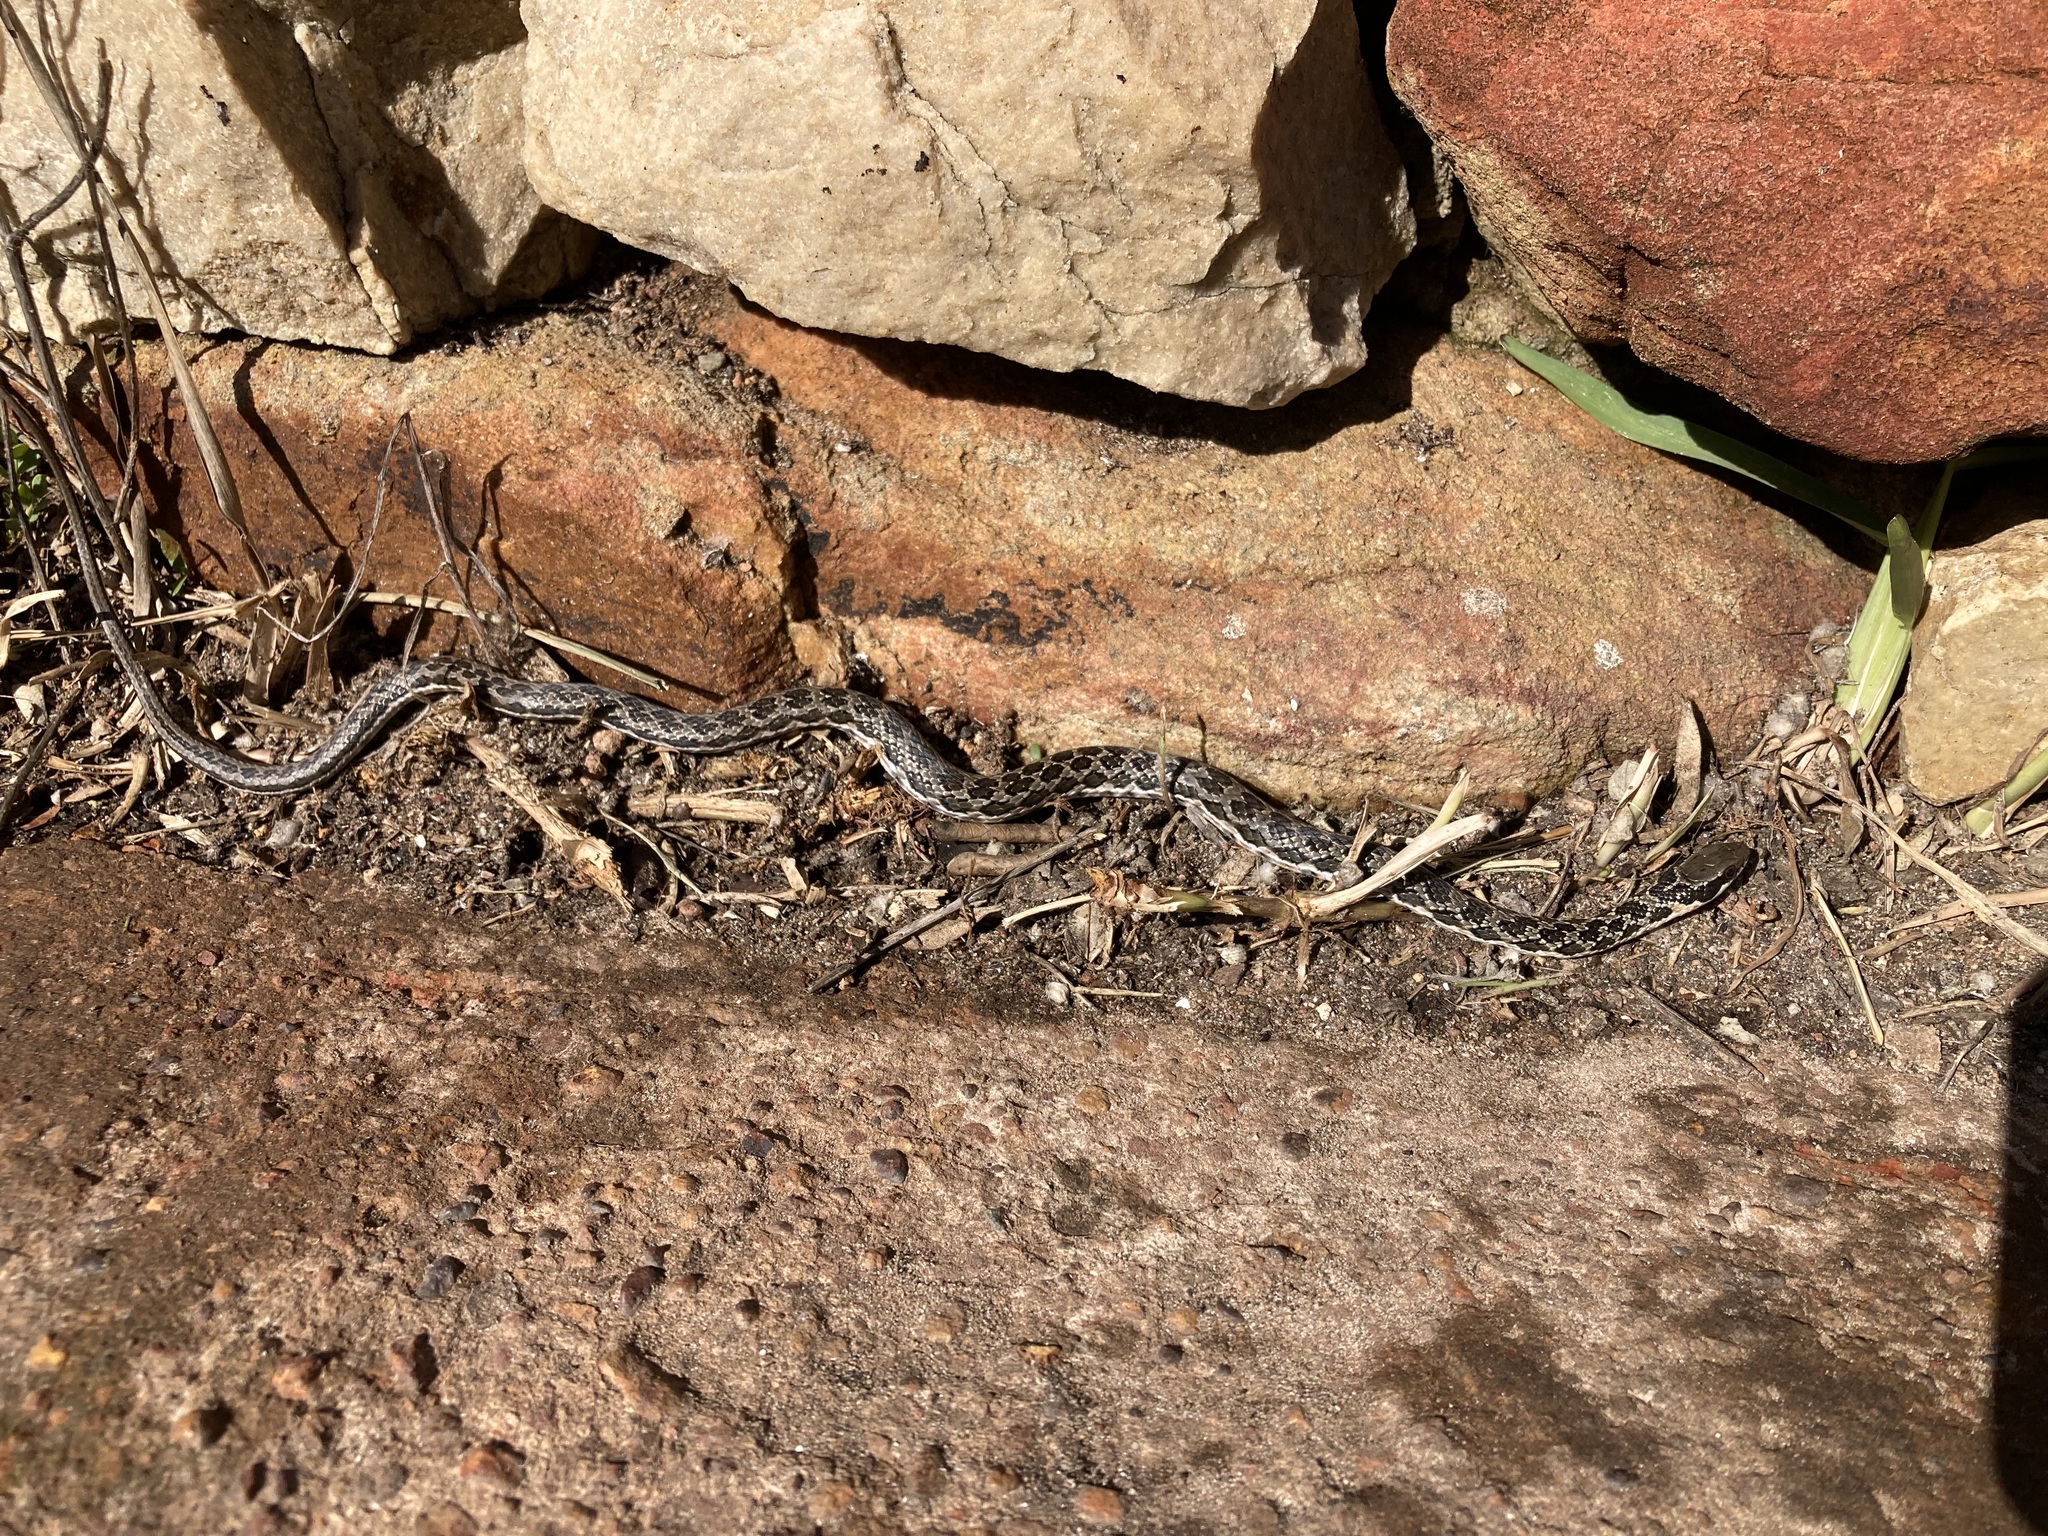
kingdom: Animalia
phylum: Chordata
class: Squamata
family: Psammophiidae
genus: Psammophylax
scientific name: Psammophylax rhombeatus
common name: Rhombic skaapsteker
